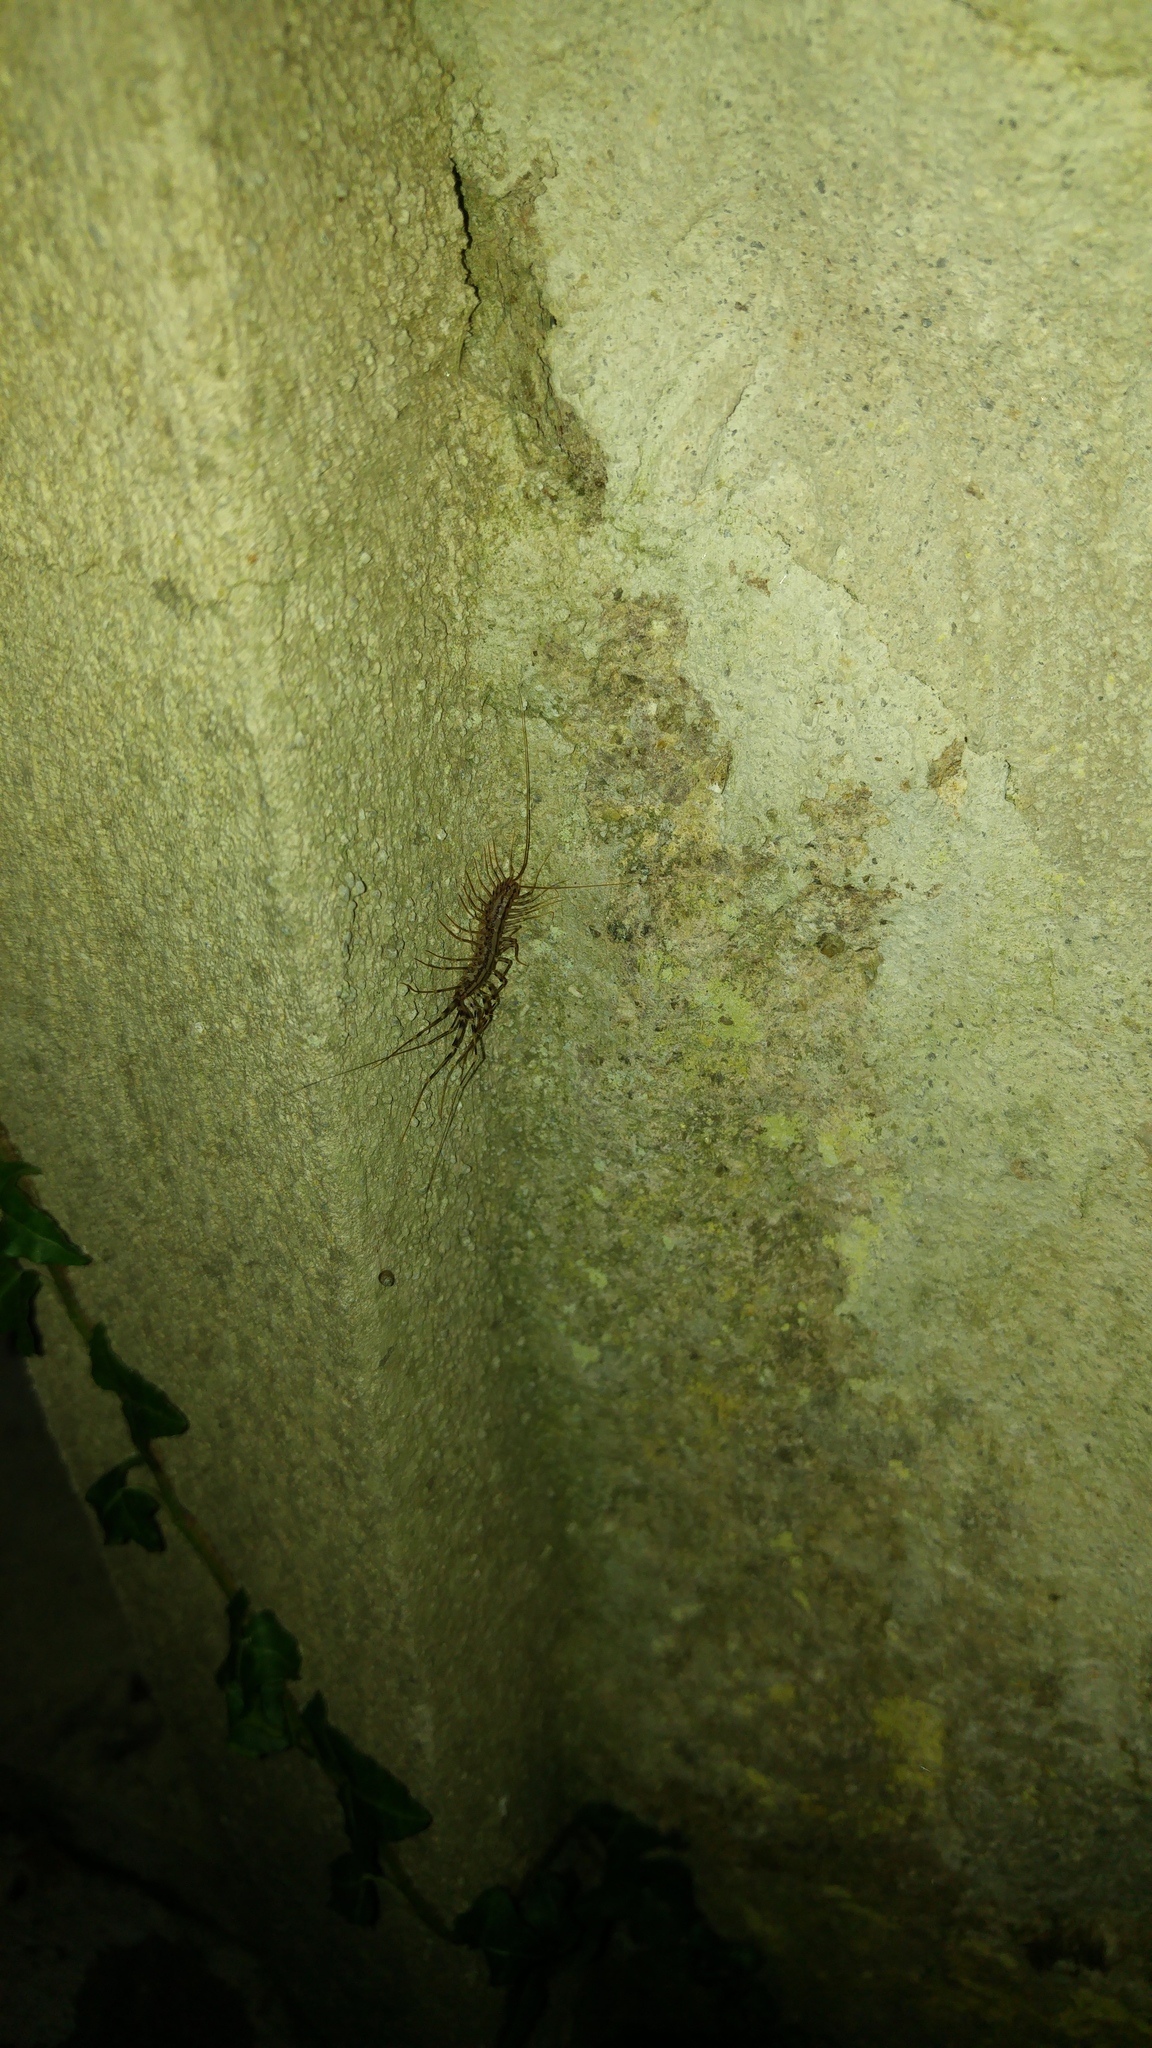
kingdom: Animalia
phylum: Arthropoda
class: Chilopoda
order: Scutigeromorpha
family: Scutigeridae
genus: Scutigera
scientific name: Scutigera coleoptrata
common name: House centipede
